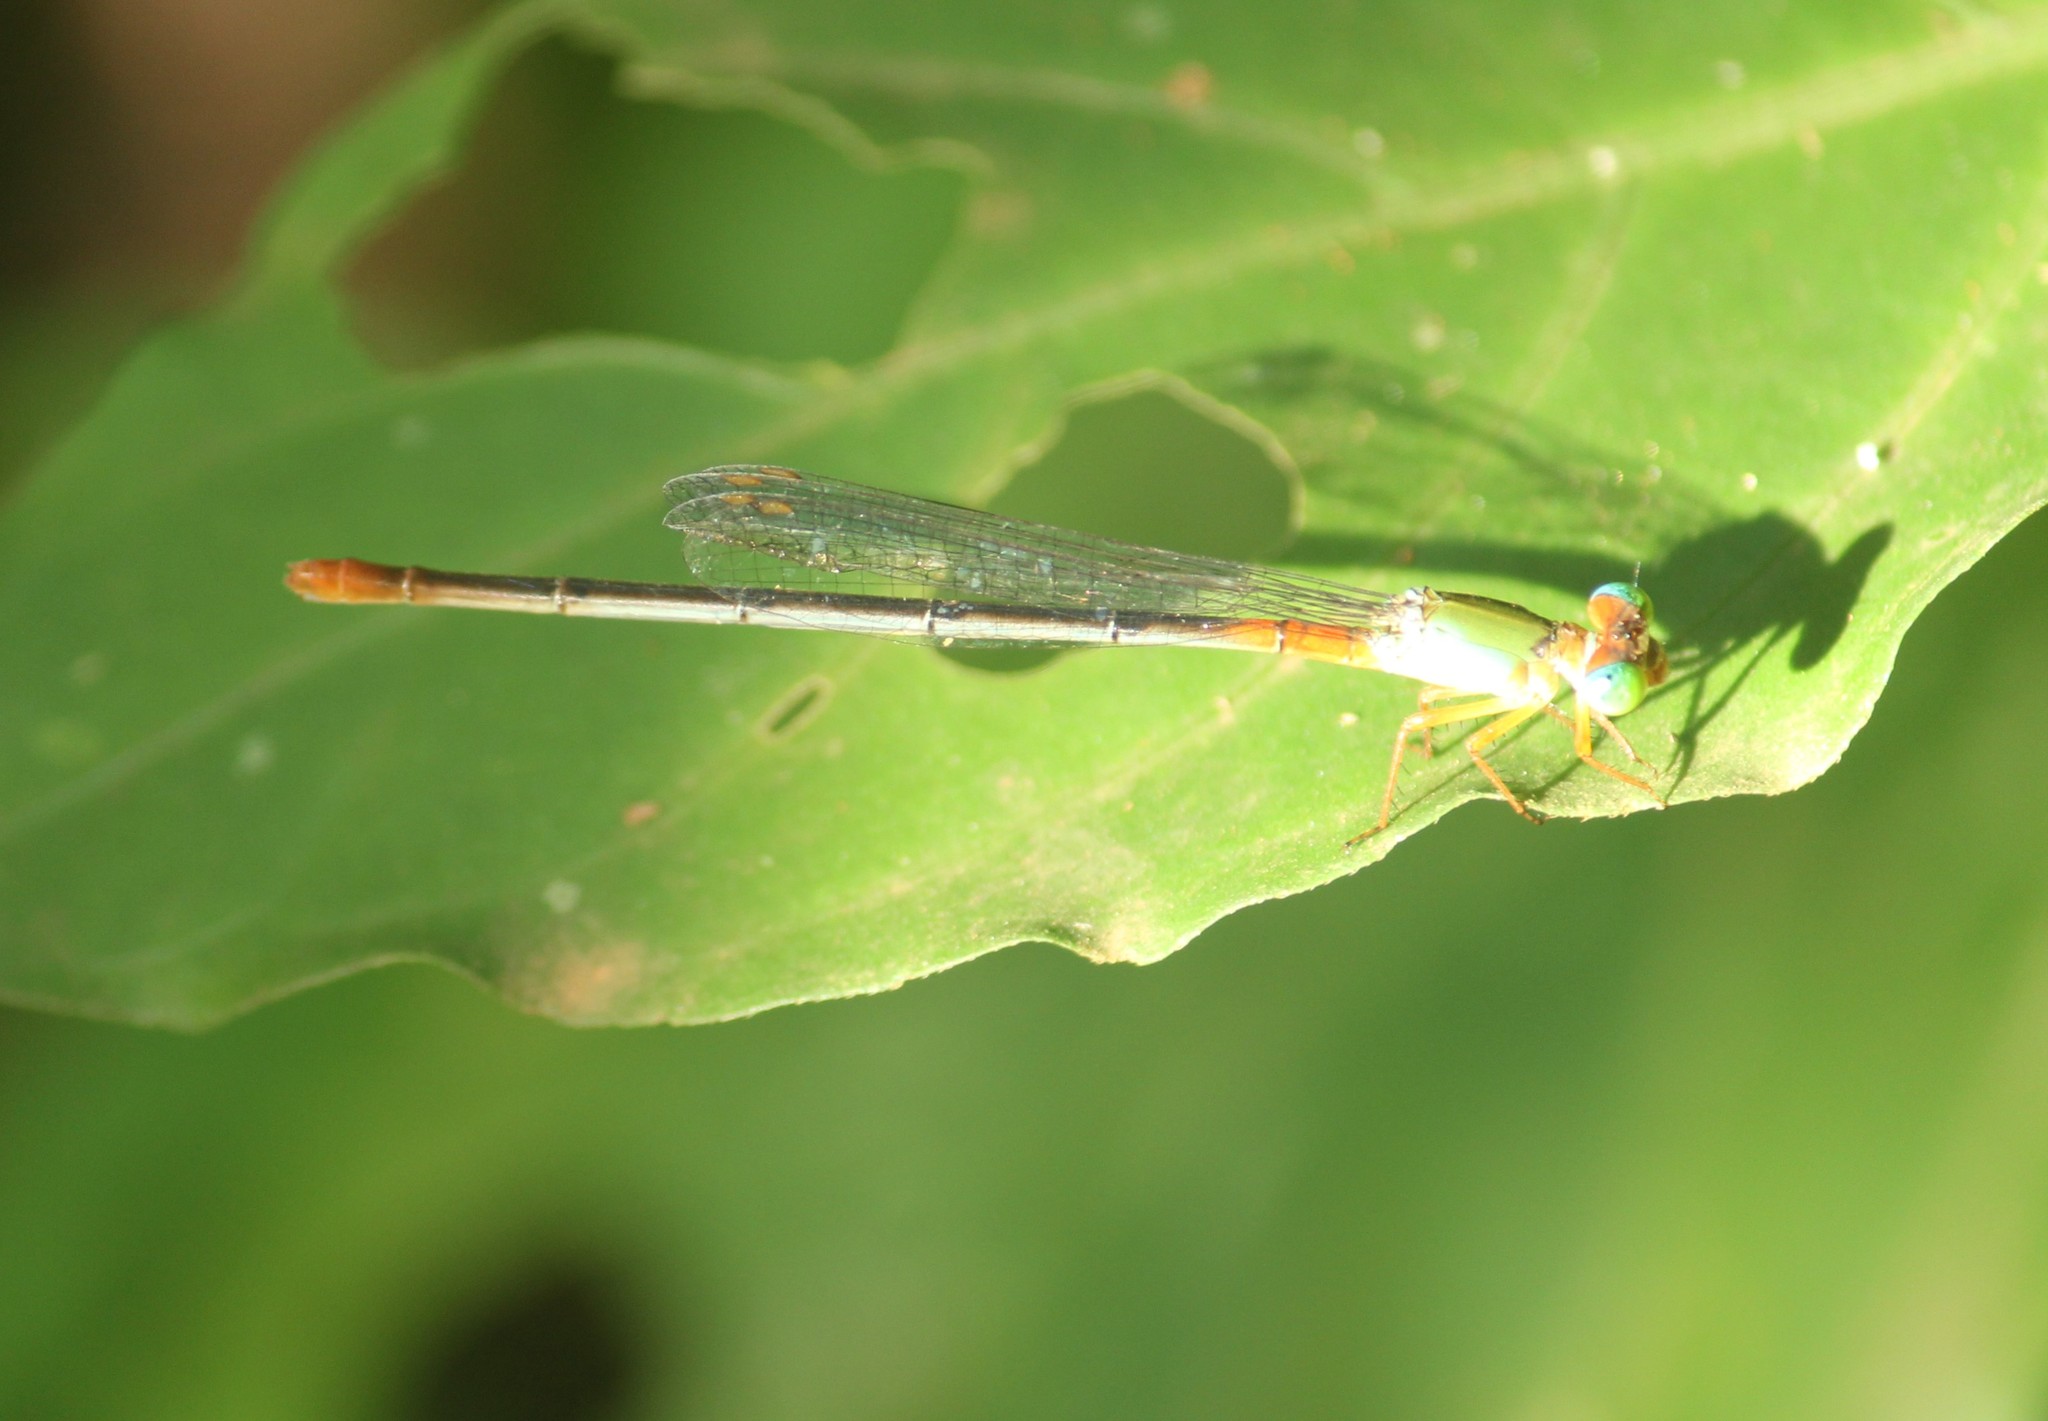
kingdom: Animalia
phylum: Arthropoda
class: Insecta
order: Odonata
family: Coenagrionidae
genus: Ceriagrion
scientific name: Ceriagrion cerinorubellum
